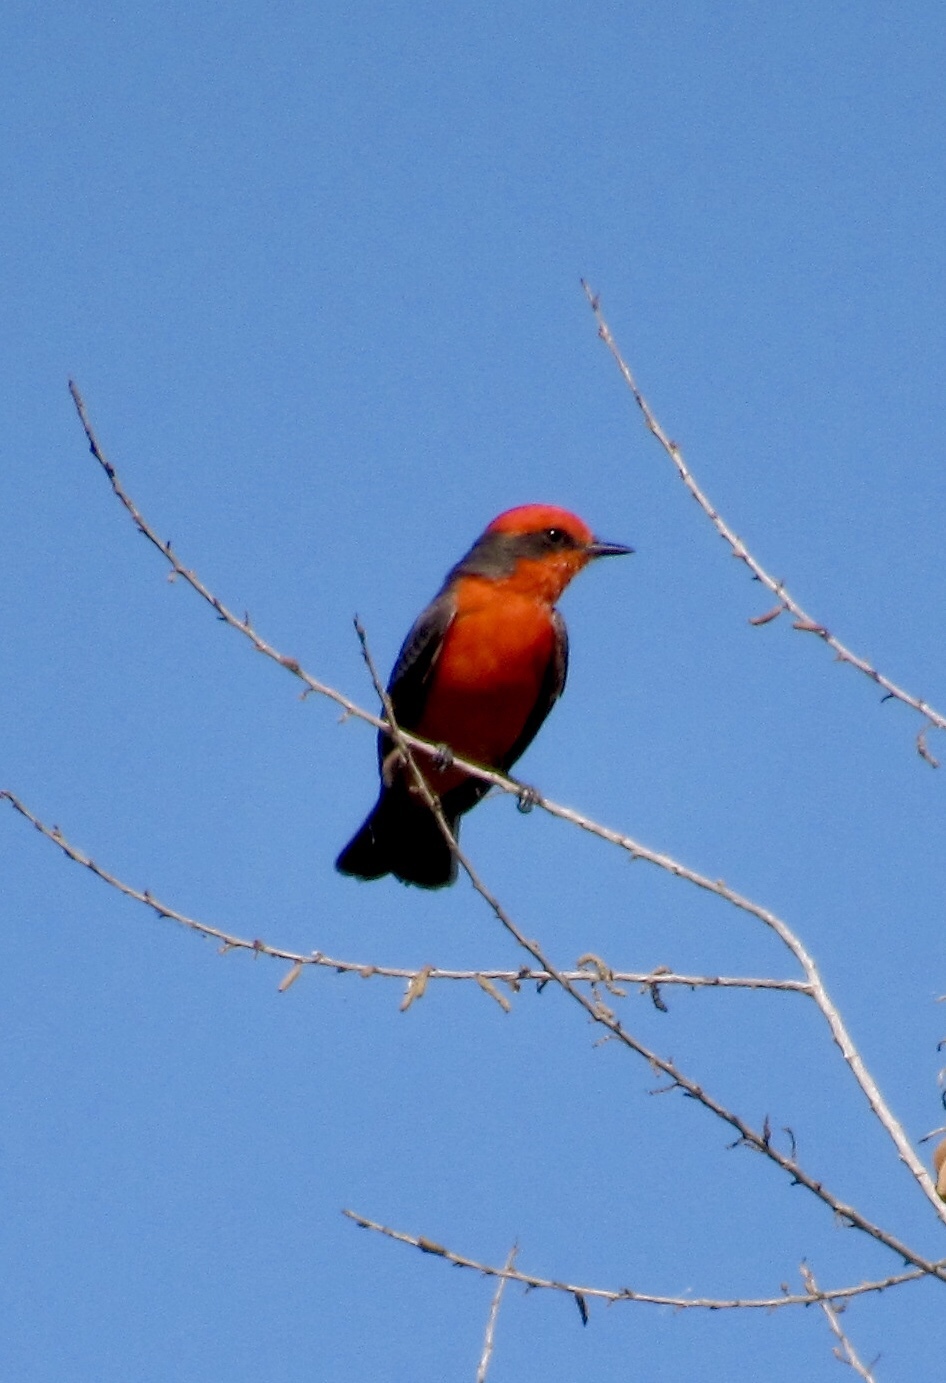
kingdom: Animalia
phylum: Chordata
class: Aves
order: Passeriformes
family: Tyrannidae
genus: Pyrocephalus
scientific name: Pyrocephalus rubinus
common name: Vermilion flycatcher
